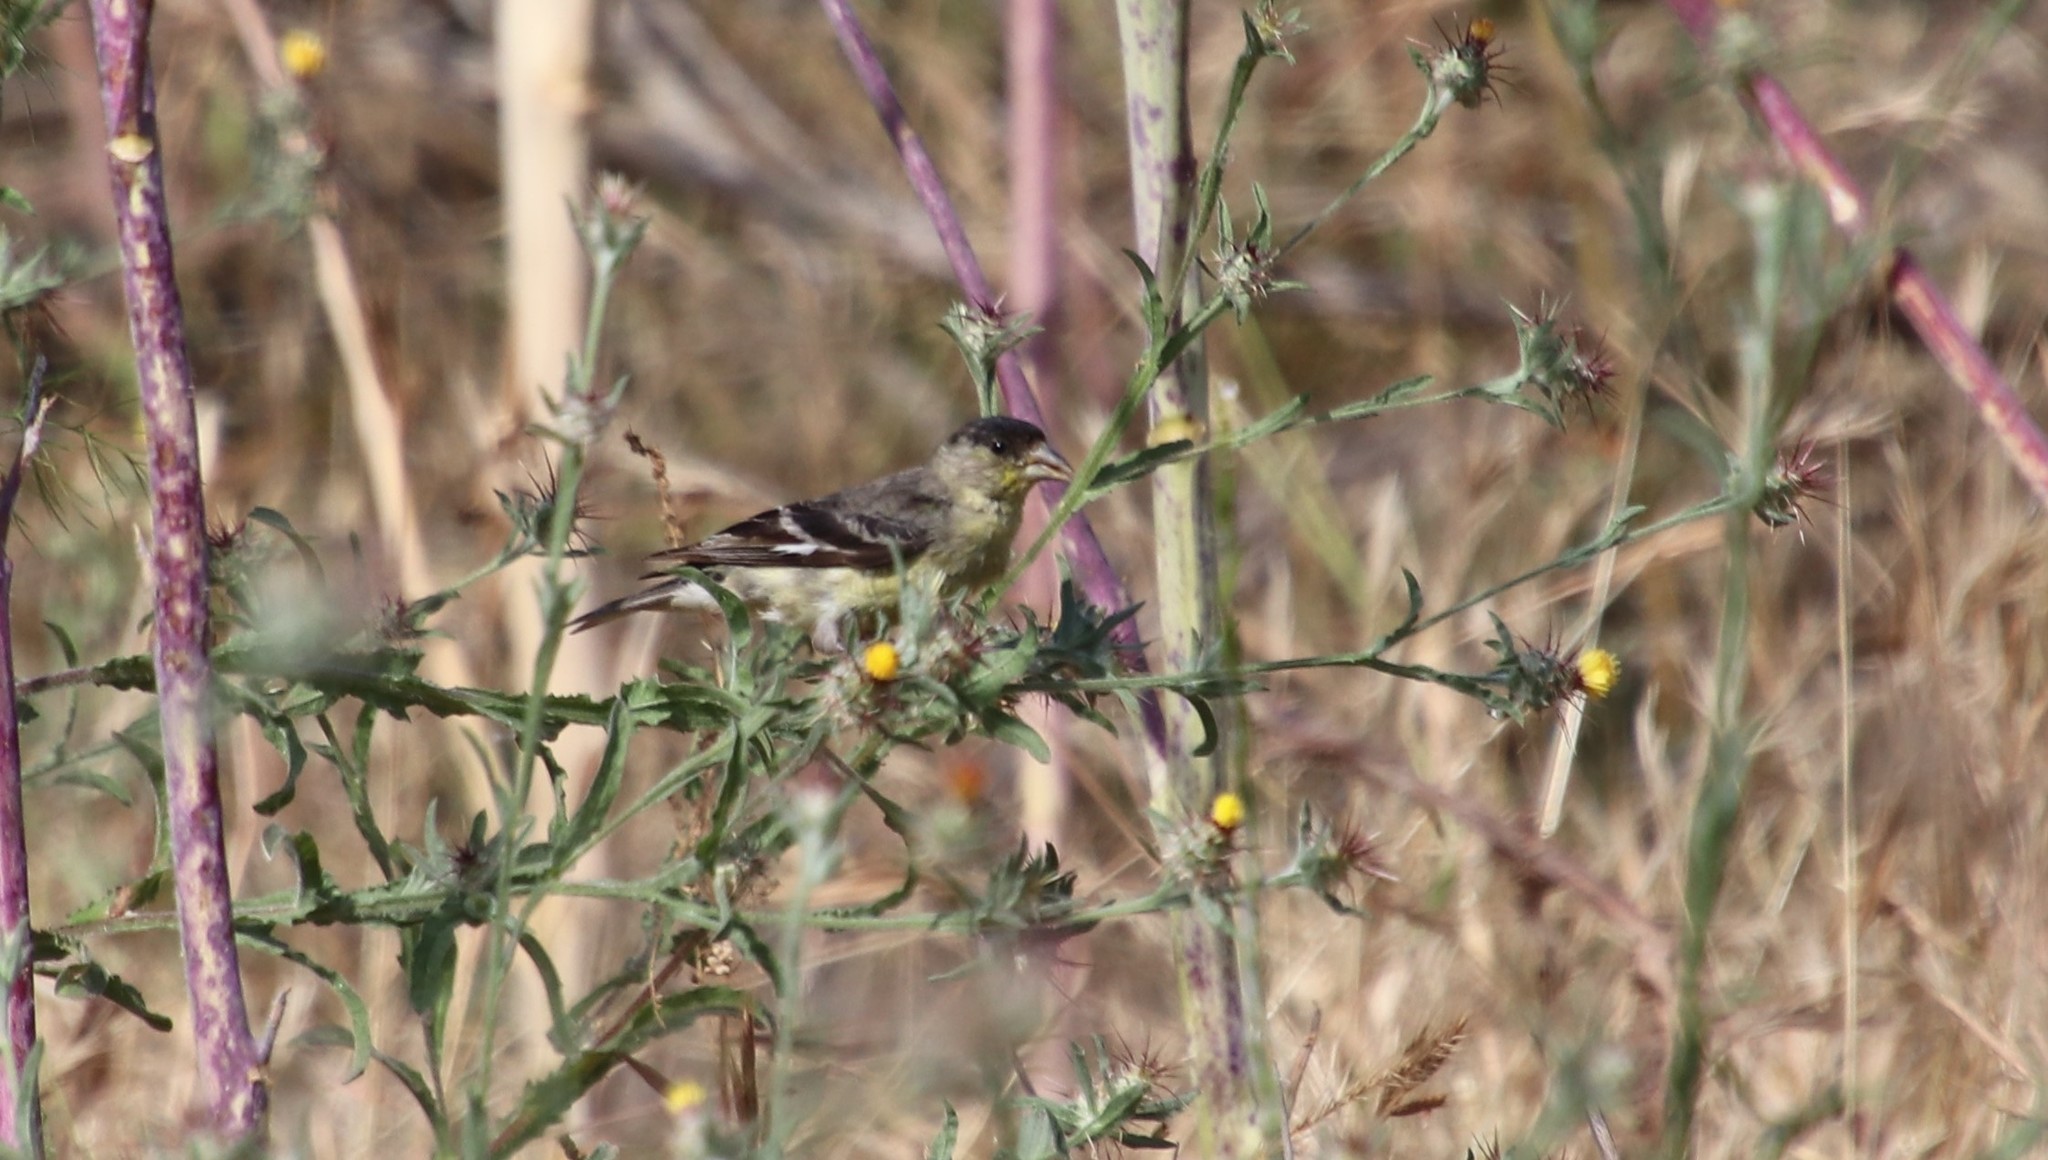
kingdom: Animalia
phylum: Chordata
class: Aves
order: Passeriformes
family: Fringillidae
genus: Spinus
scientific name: Spinus psaltria
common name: Lesser goldfinch
